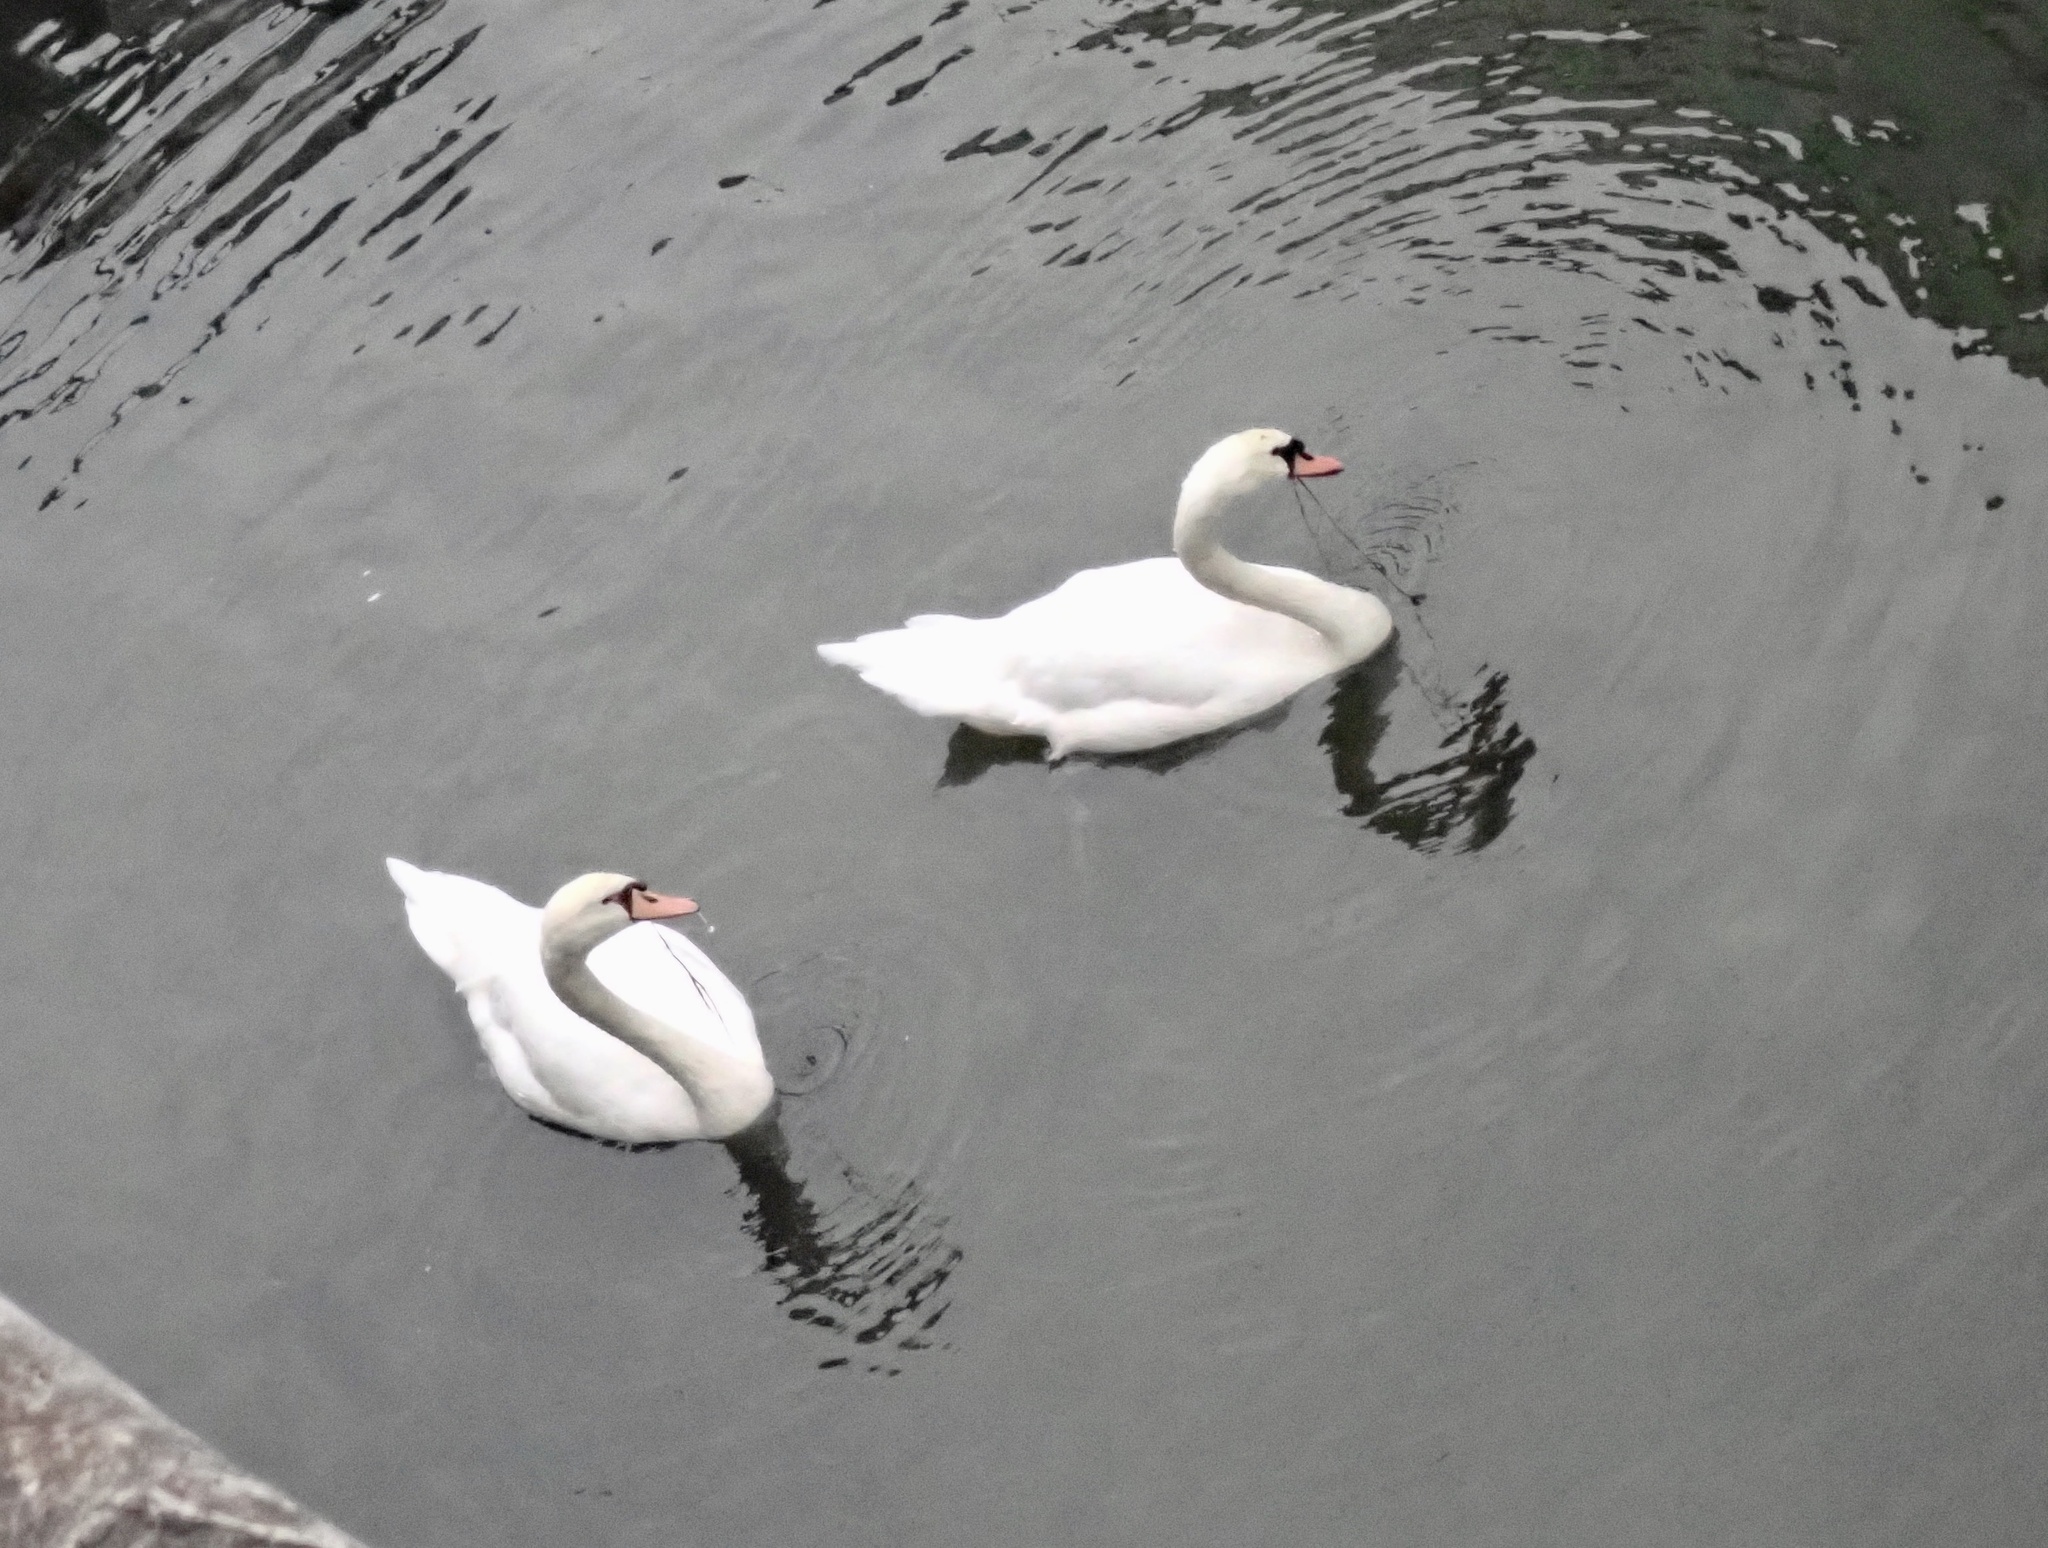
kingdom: Animalia
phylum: Chordata
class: Aves
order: Anseriformes
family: Anatidae
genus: Cygnus
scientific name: Cygnus olor
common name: Mute swan
